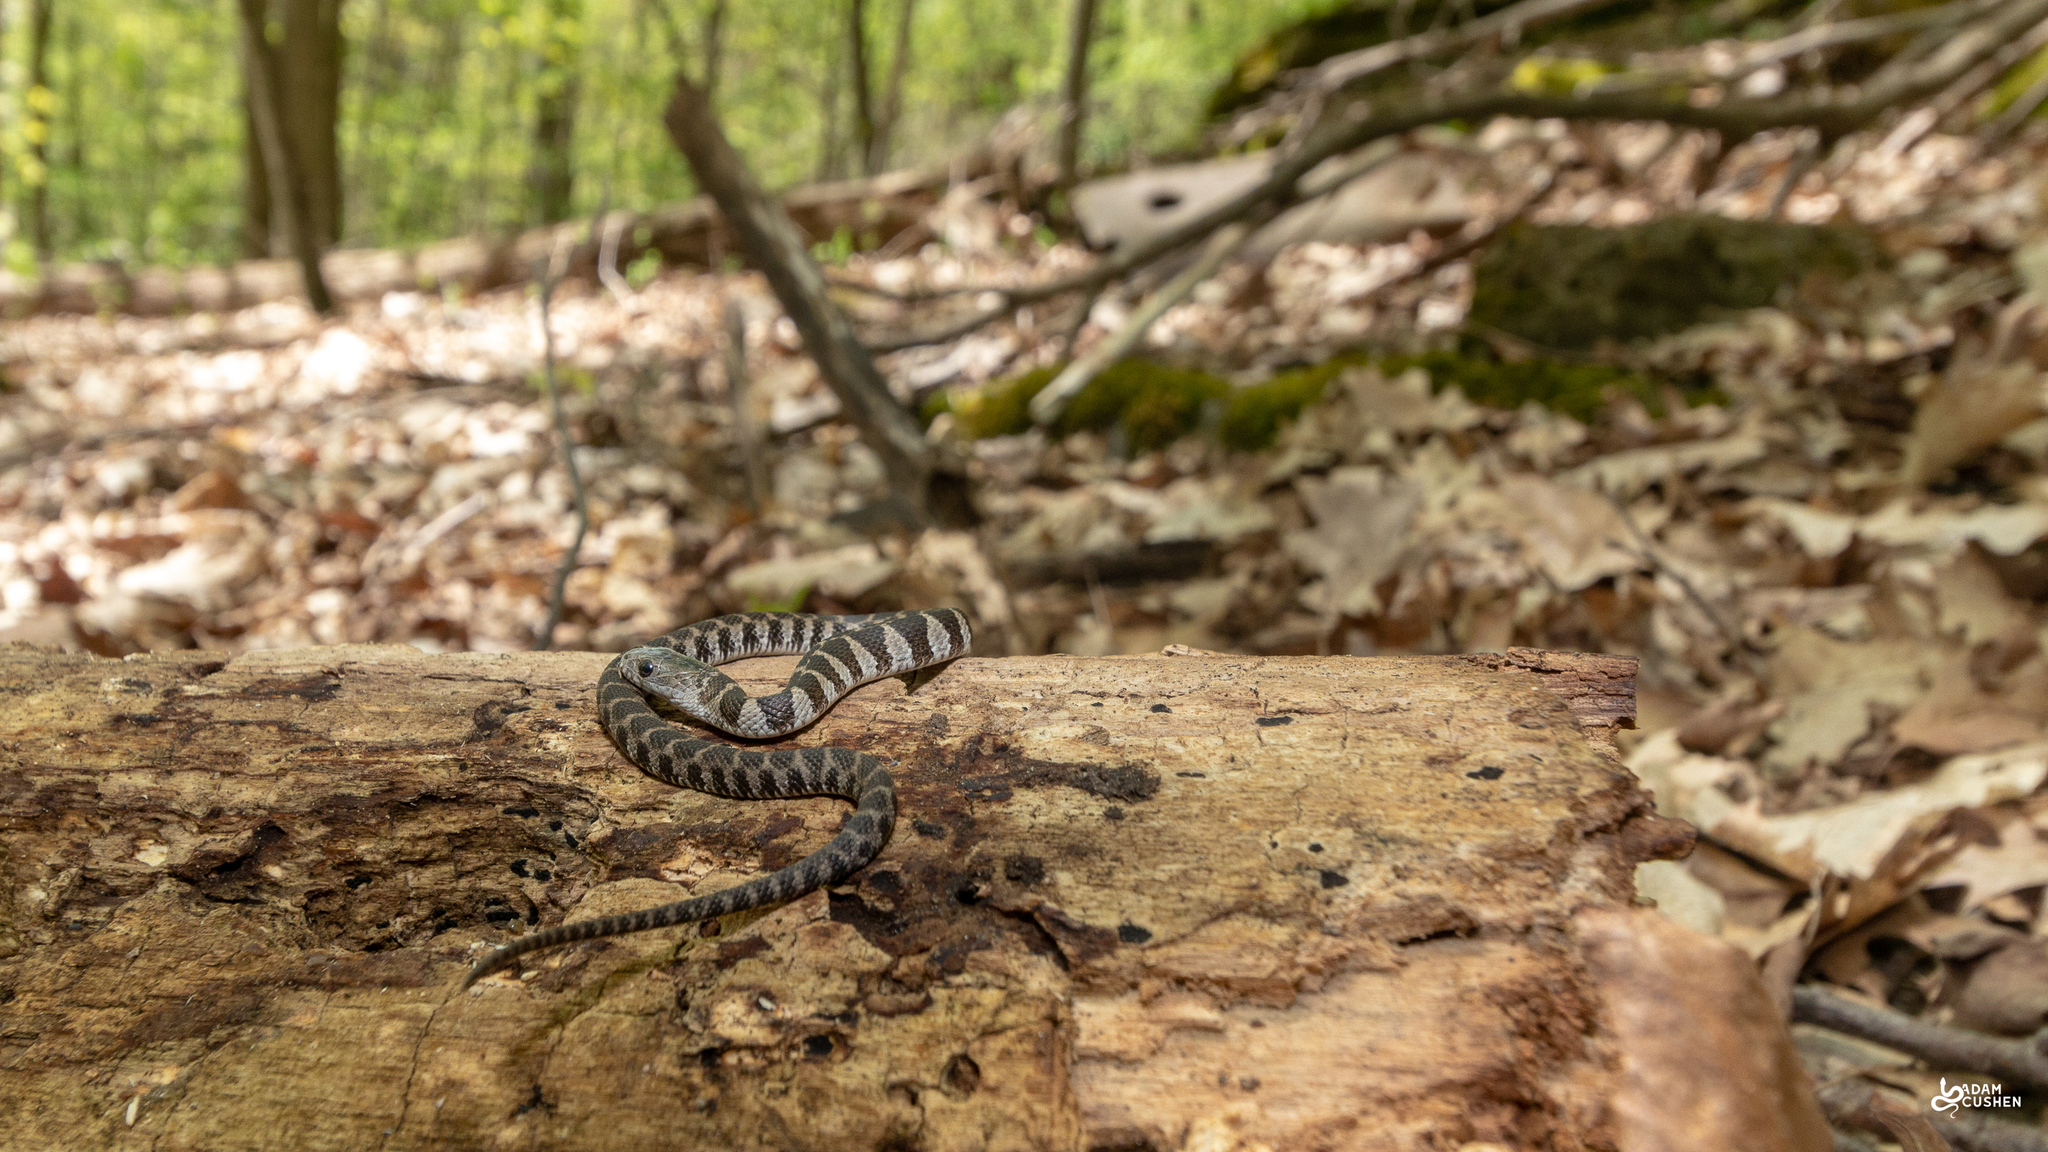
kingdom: Animalia
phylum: Chordata
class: Squamata
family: Colubridae
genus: Nerodia
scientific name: Nerodia sipedon
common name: Northern water snake
